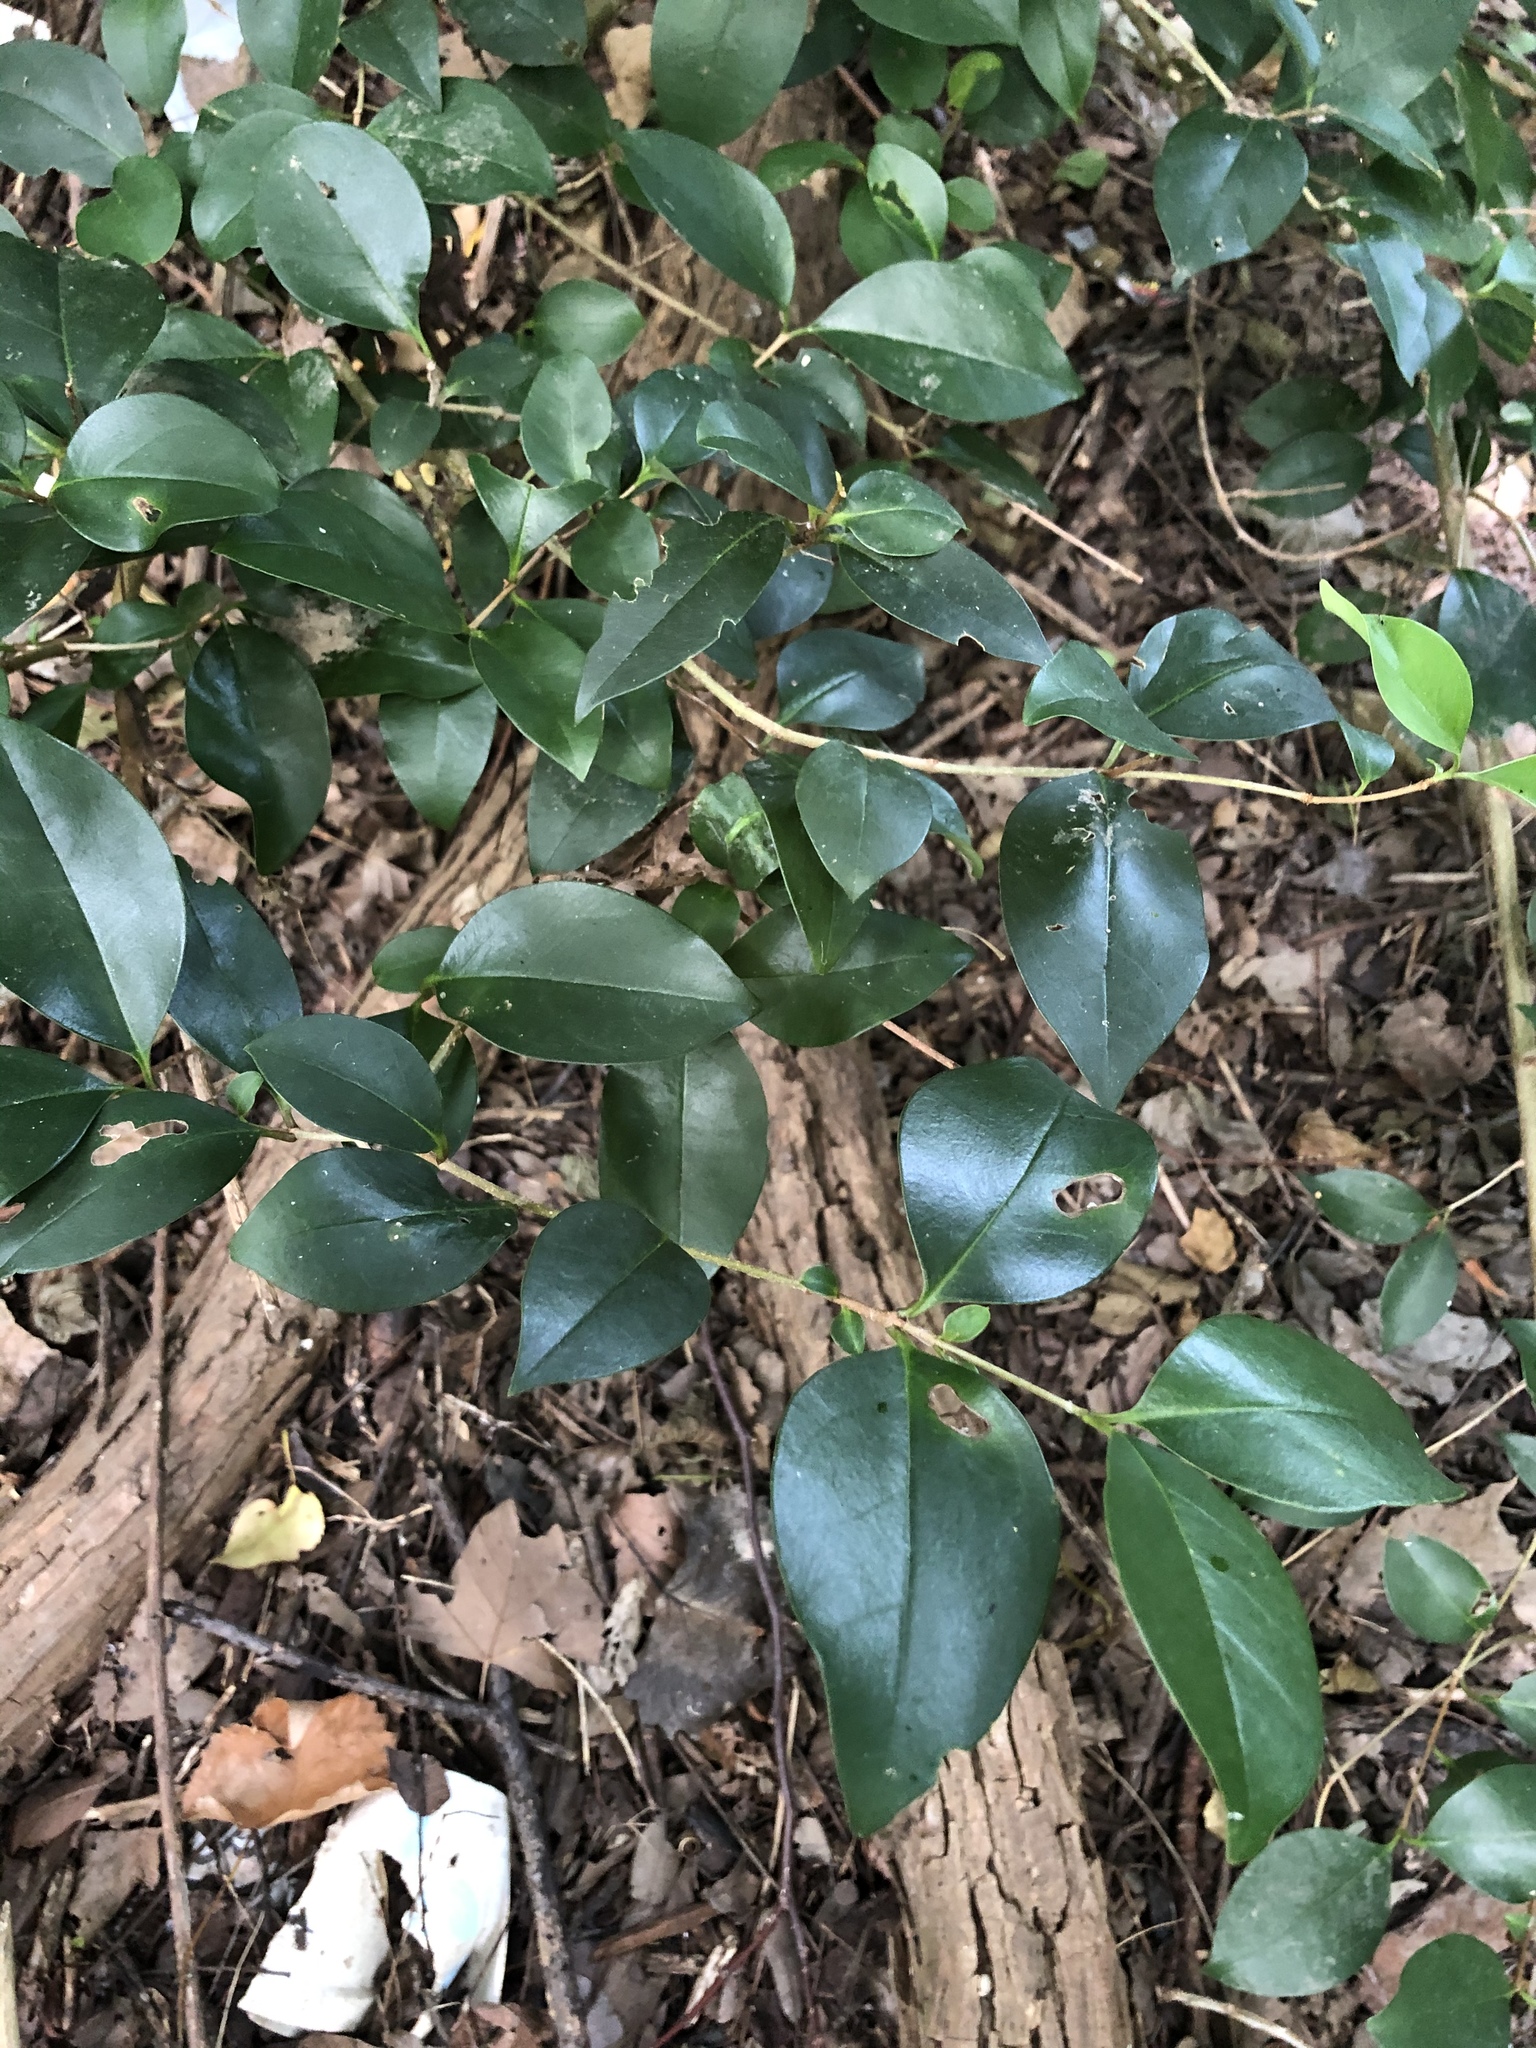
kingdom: Plantae
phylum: Tracheophyta
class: Magnoliopsida
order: Lamiales
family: Oleaceae
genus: Ligustrum
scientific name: Ligustrum lucidum
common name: Glossy privet
